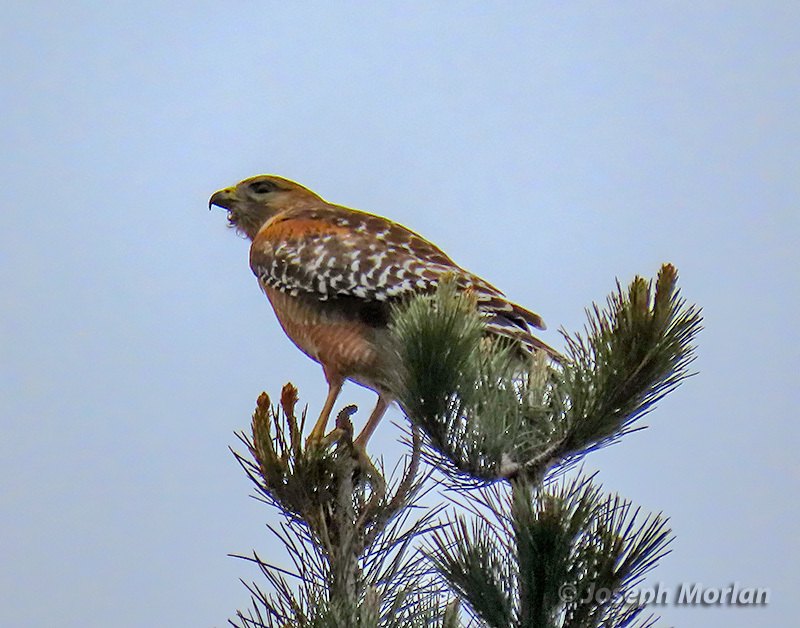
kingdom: Animalia
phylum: Chordata
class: Aves
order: Accipitriformes
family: Accipitridae
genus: Buteo
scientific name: Buteo lineatus
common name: Red-shouldered hawk
